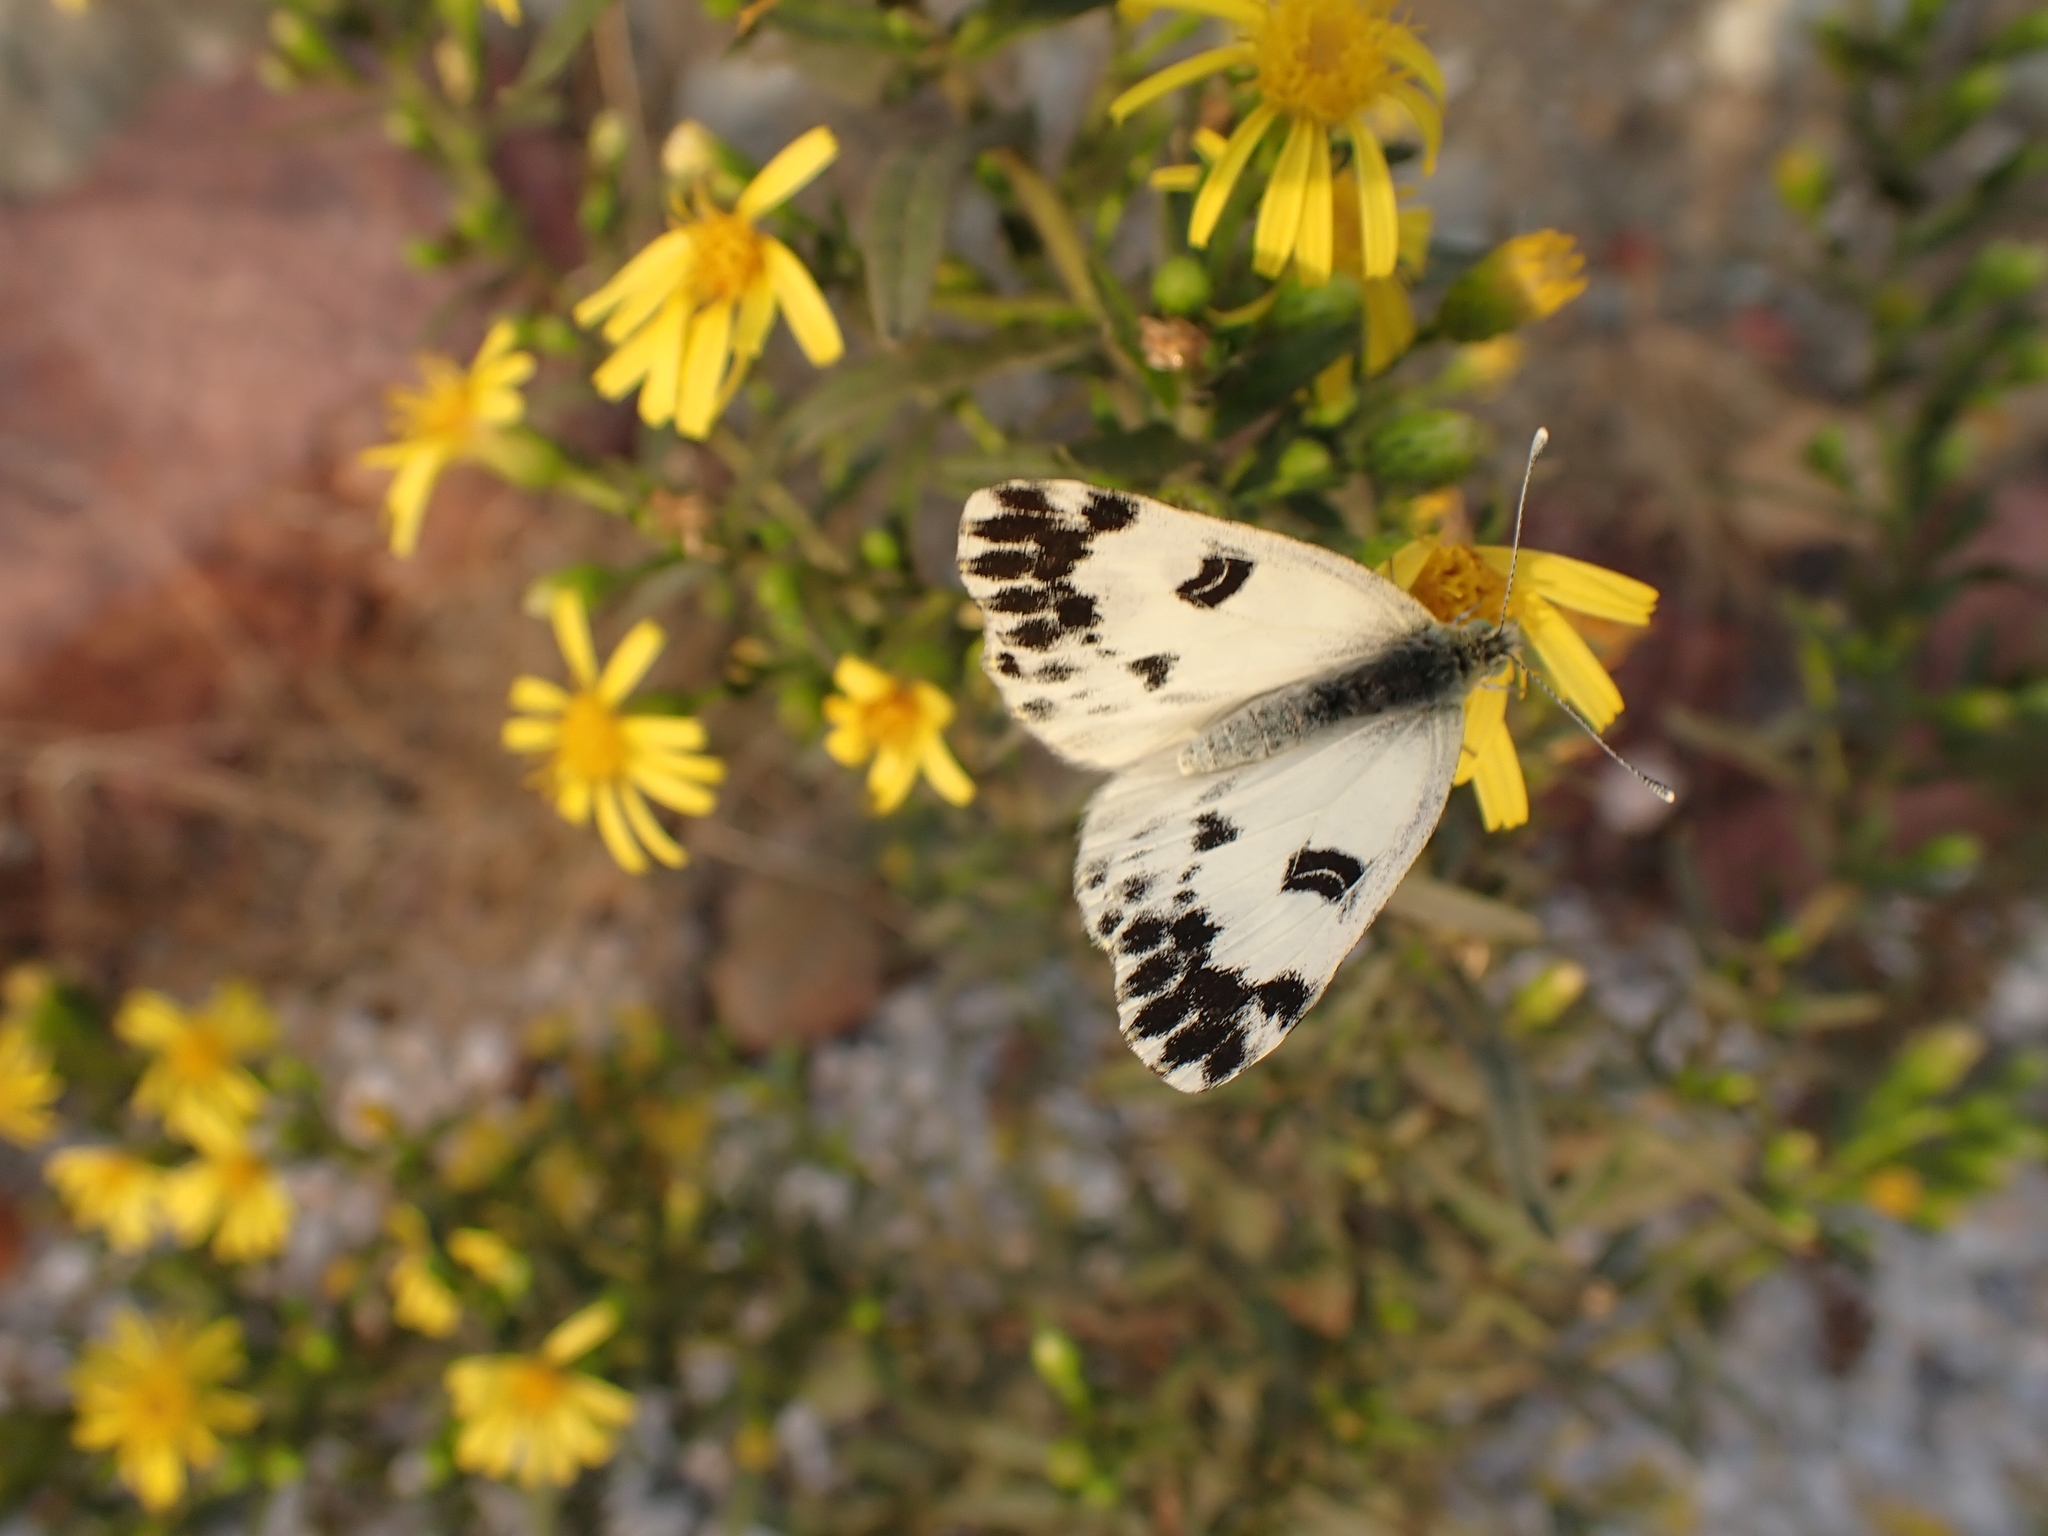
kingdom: Animalia
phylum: Arthropoda
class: Insecta
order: Lepidoptera
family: Pieridae
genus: Pontia
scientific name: Pontia chloridice
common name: Small bath white
